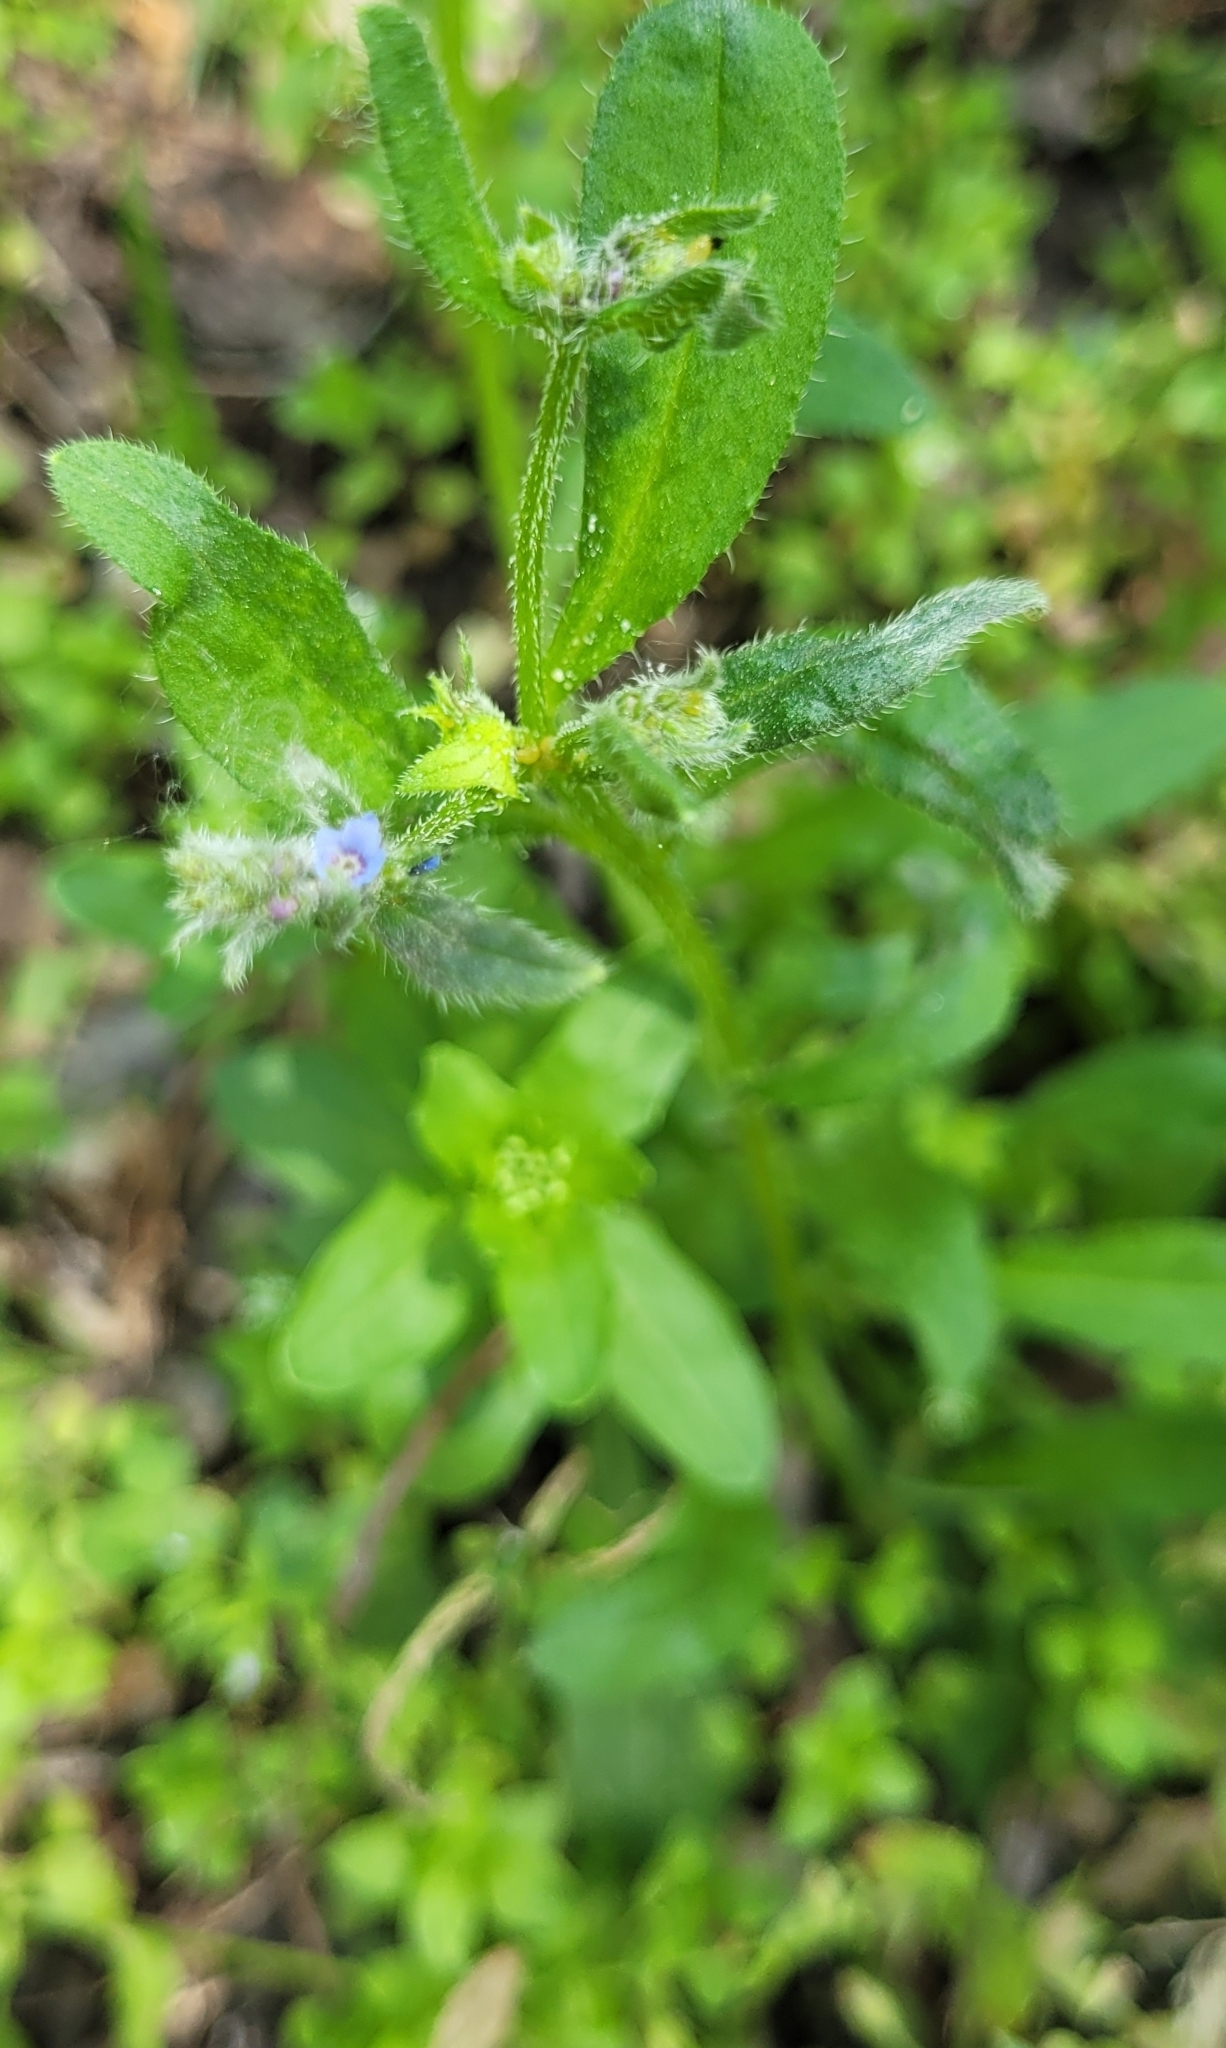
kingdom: Plantae
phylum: Tracheophyta
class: Magnoliopsida
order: Boraginales
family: Boraginaceae
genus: Asperugo
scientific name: Asperugo procumbens
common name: Madwort
